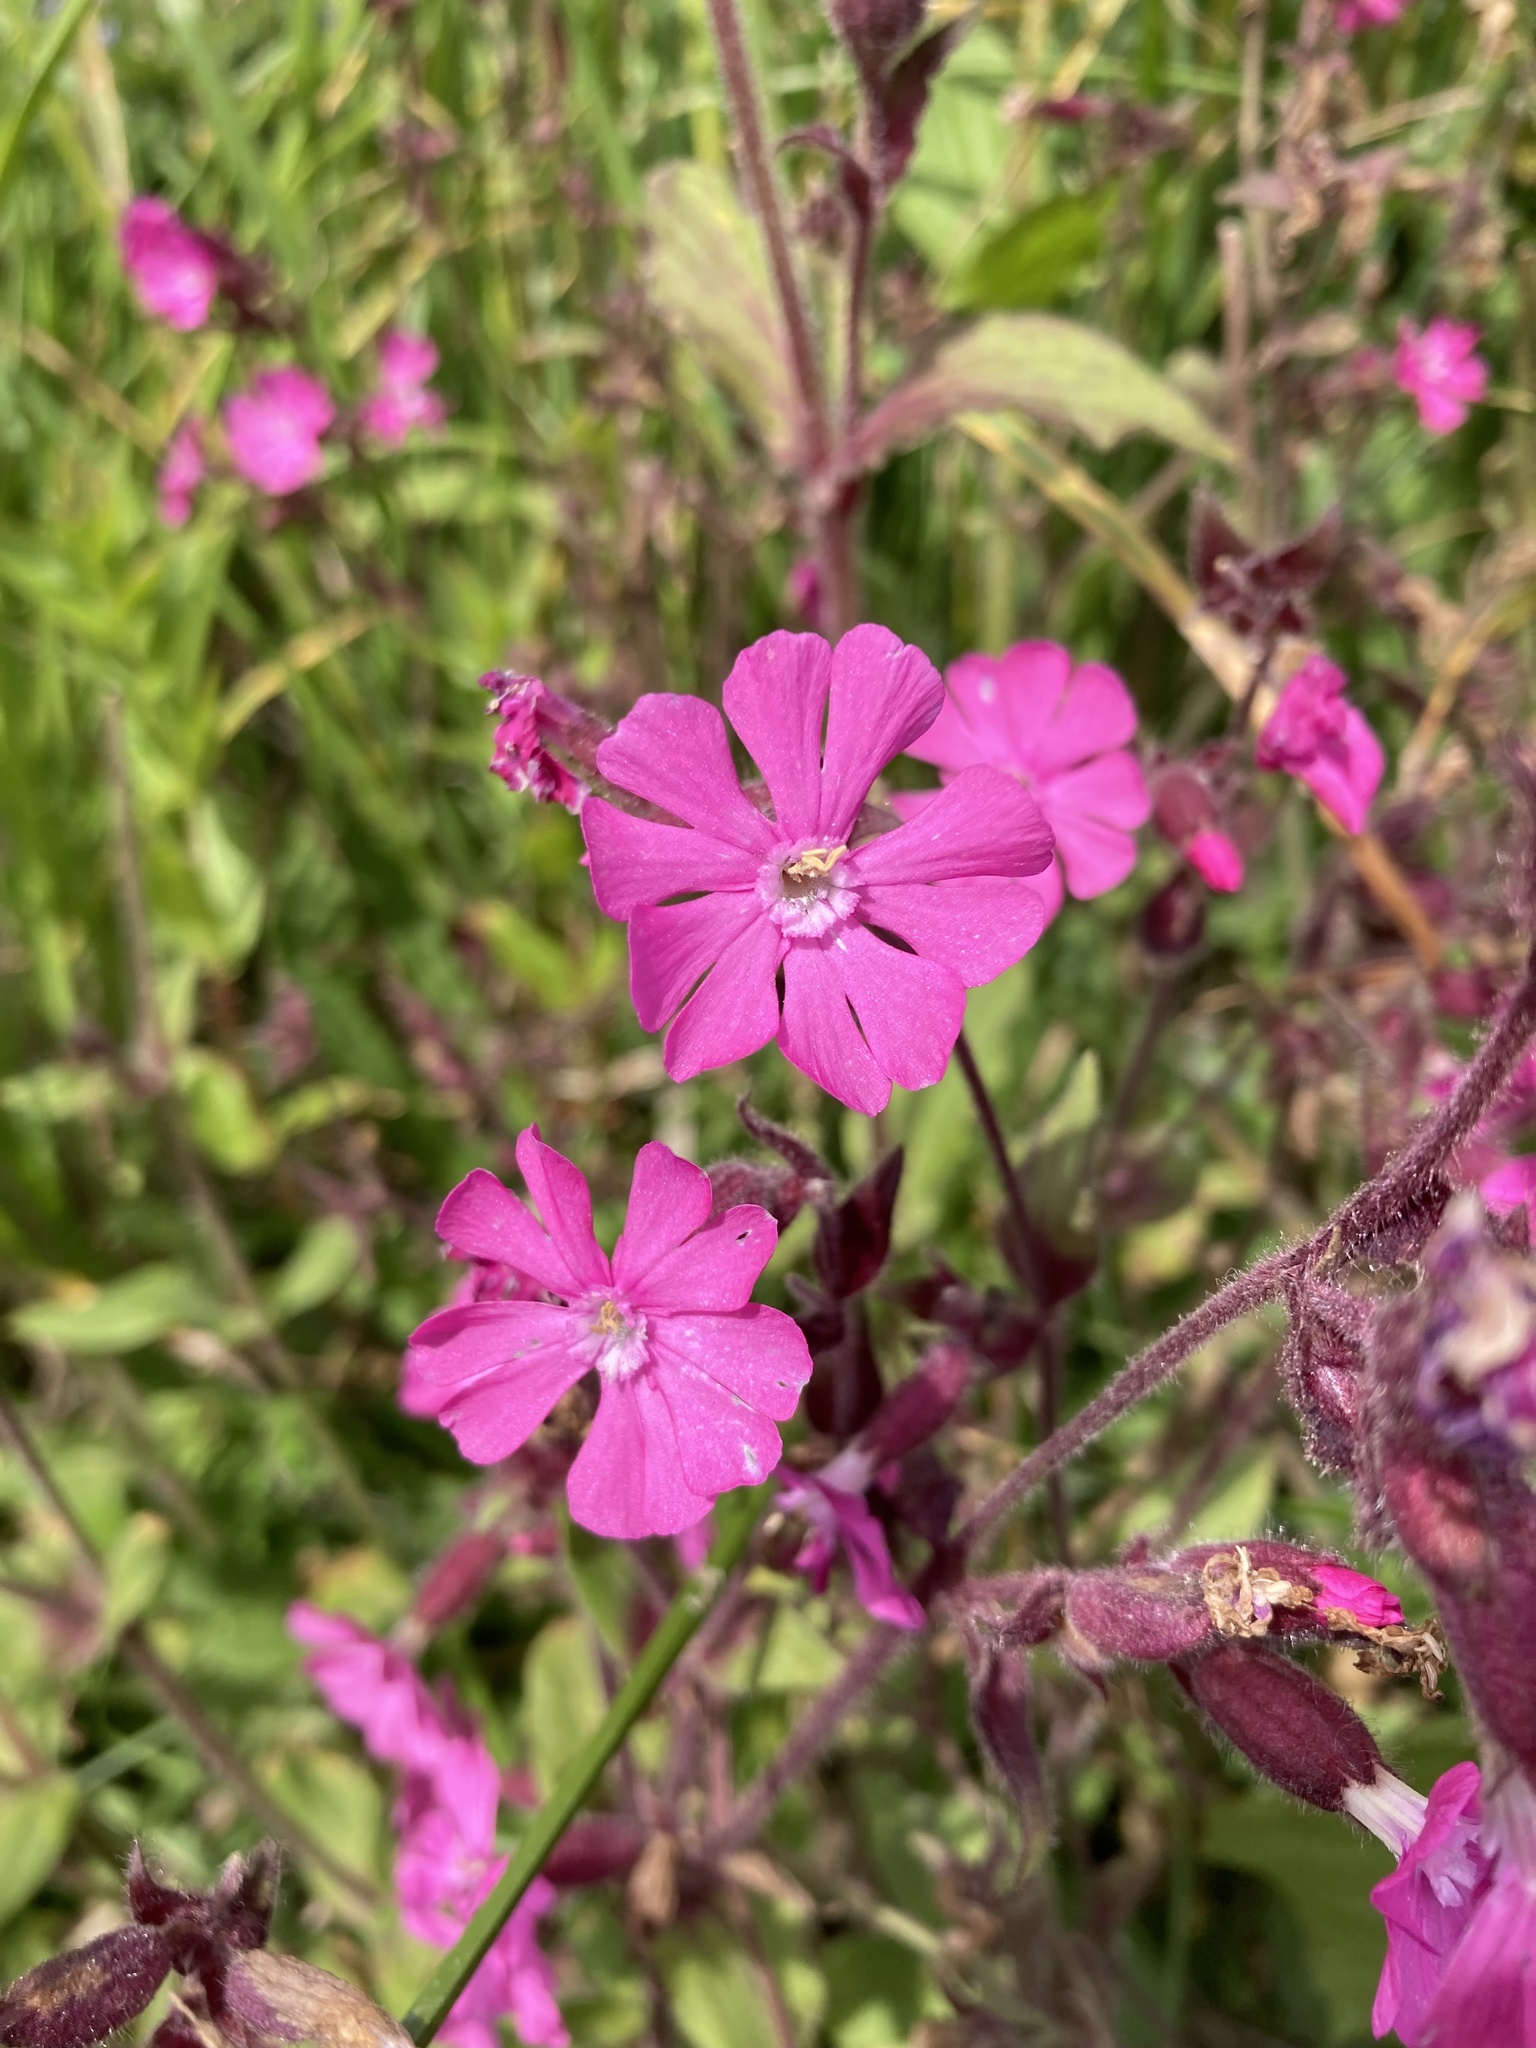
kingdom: Plantae
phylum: Tracheophyta
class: Magnoliopsida
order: Caryophyllales
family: Caryophyllaceae
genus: Silene
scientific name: Silene dioica
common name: Red campion
